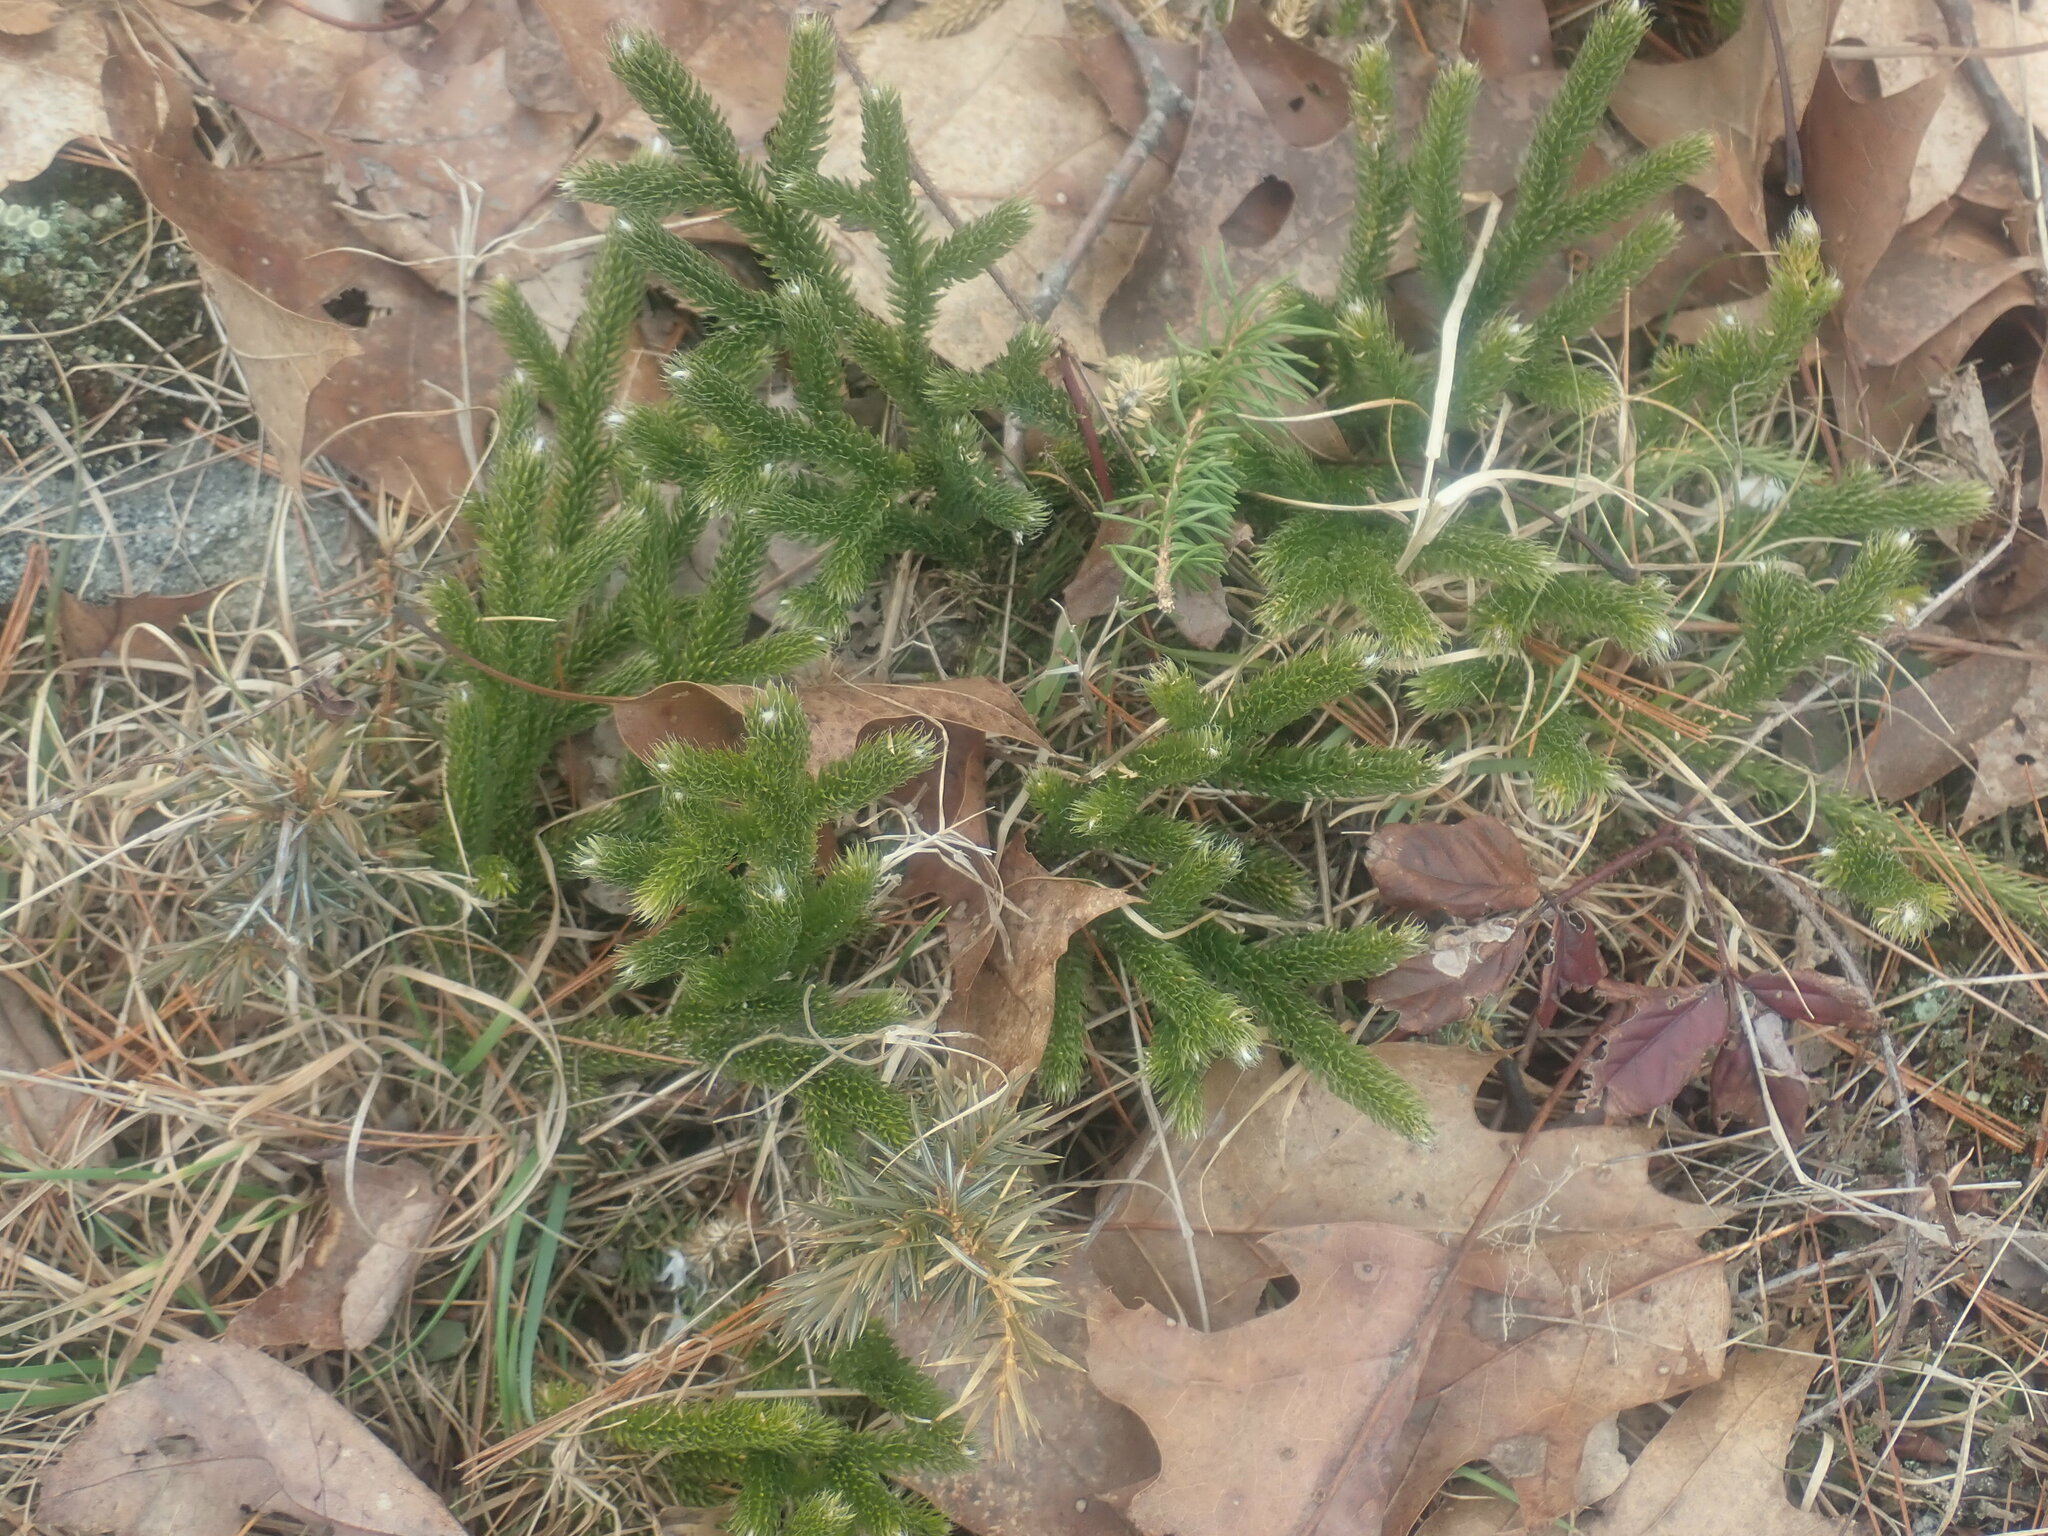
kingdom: Plantae
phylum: Tracheophyta
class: Lycopodiopsida
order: Lycopodiales
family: Lycopodiaceae
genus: Lycopodium
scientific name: Lycopodium clavatum
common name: Stag's-horn clubmoss
